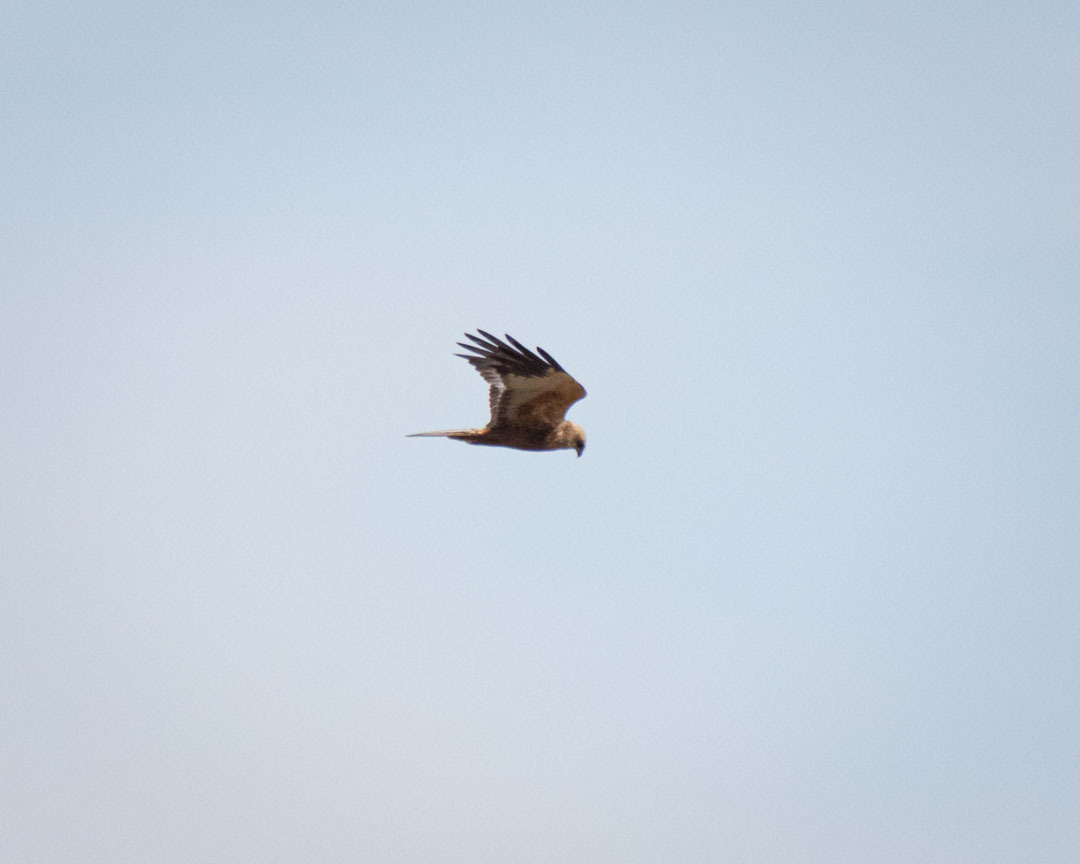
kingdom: Animalia
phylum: Chordata
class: Aves
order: Accipitriformes
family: Accipitridae
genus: Circus
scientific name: Circus aeruginosus
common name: Western marsh harrier
